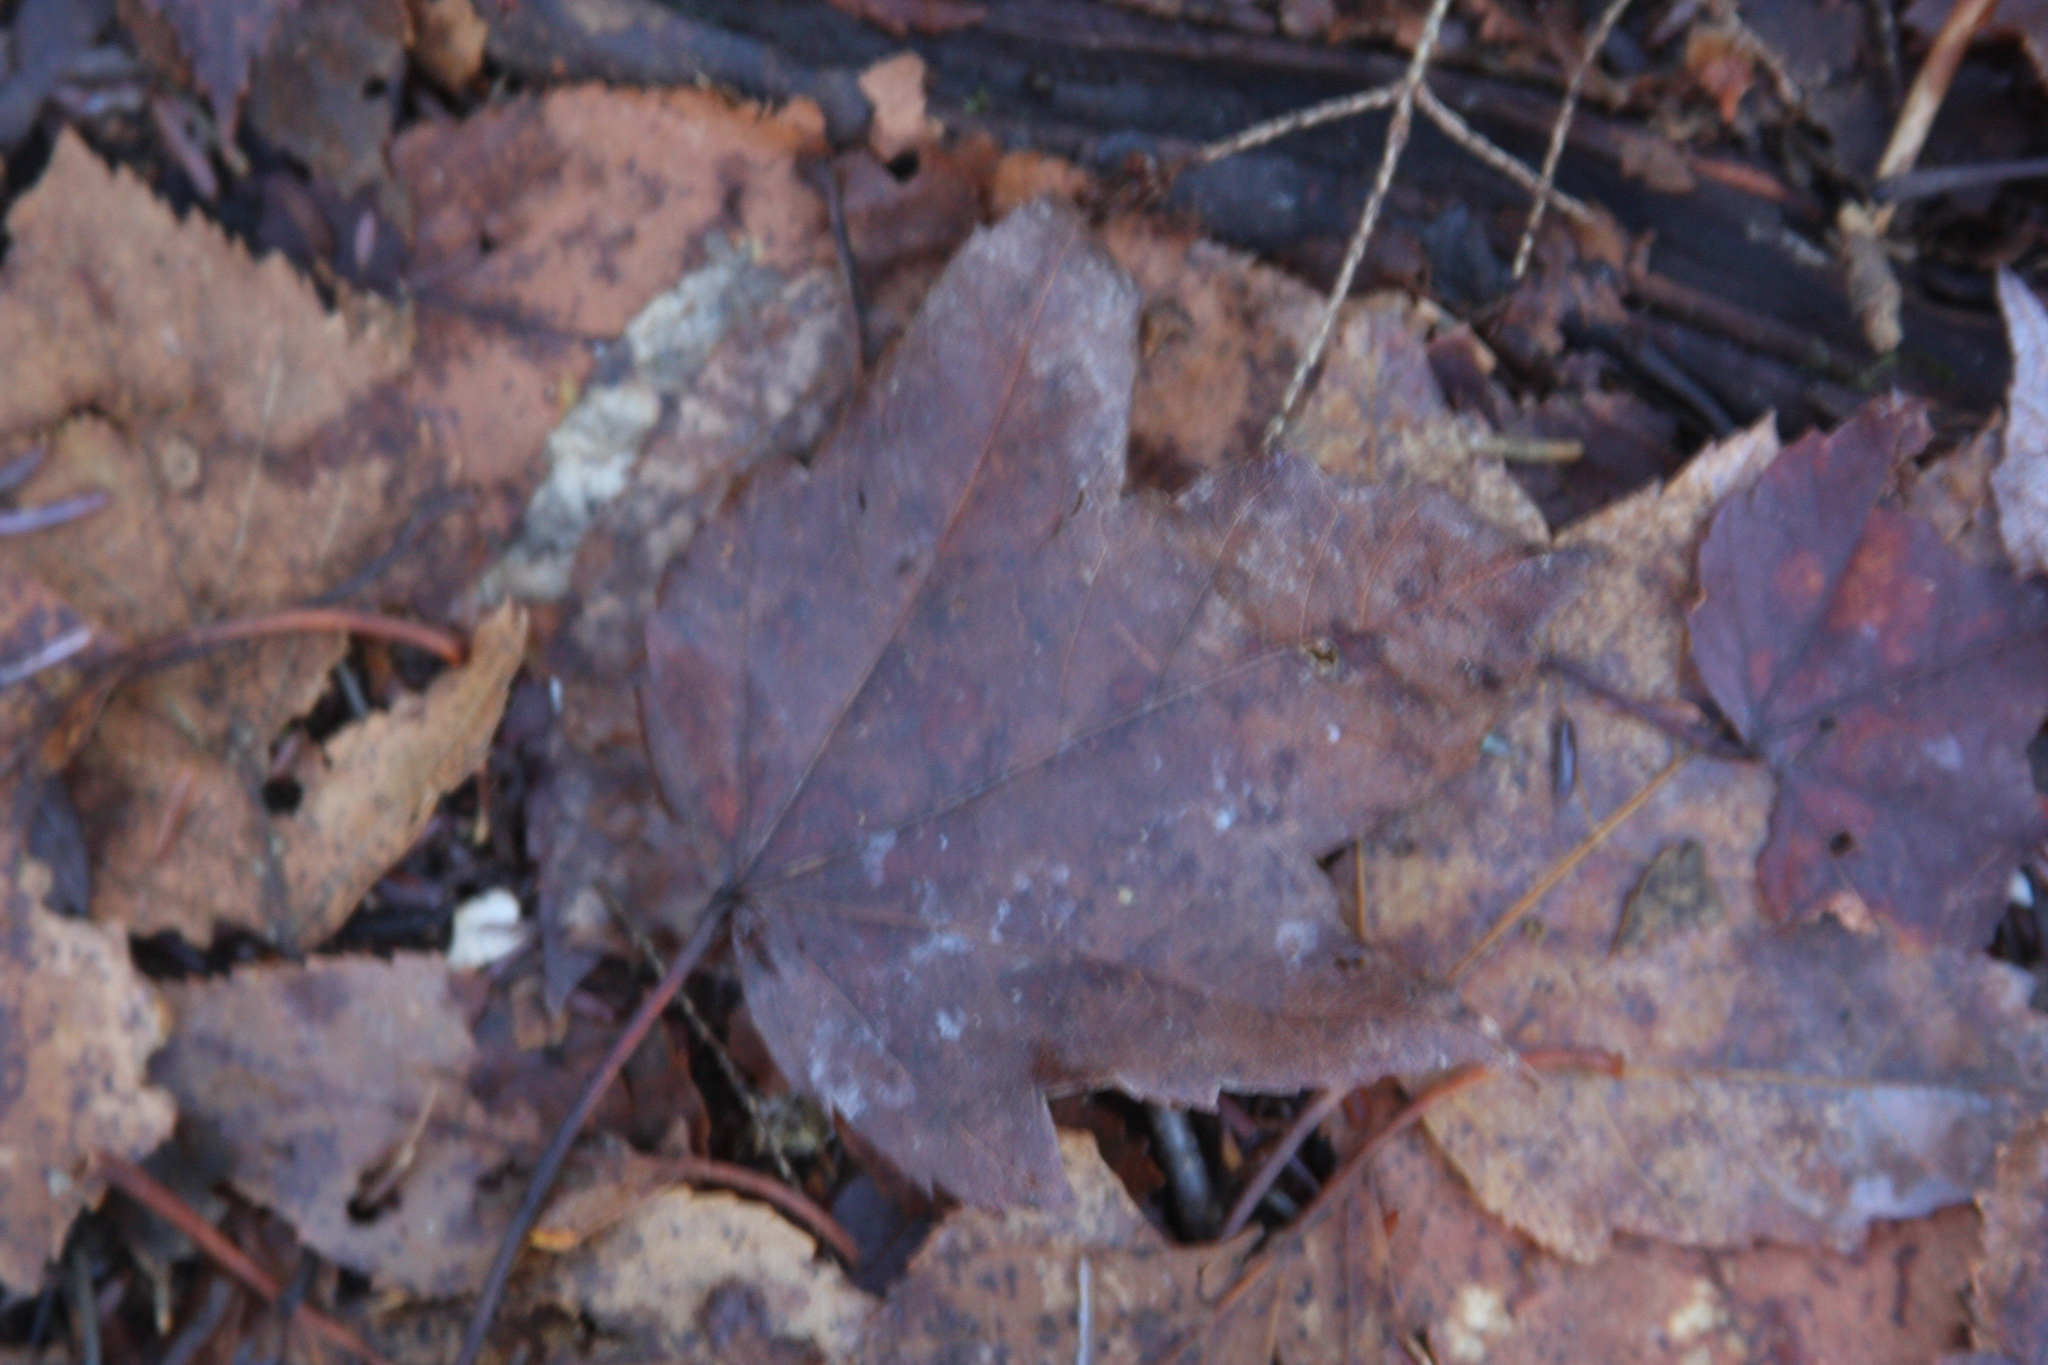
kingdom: Plantae
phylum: Tracheophyta
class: Magnoliopsida
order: Sapindales
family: Sapindaceae
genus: Acer
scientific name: Acer rubrum
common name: Red maple
